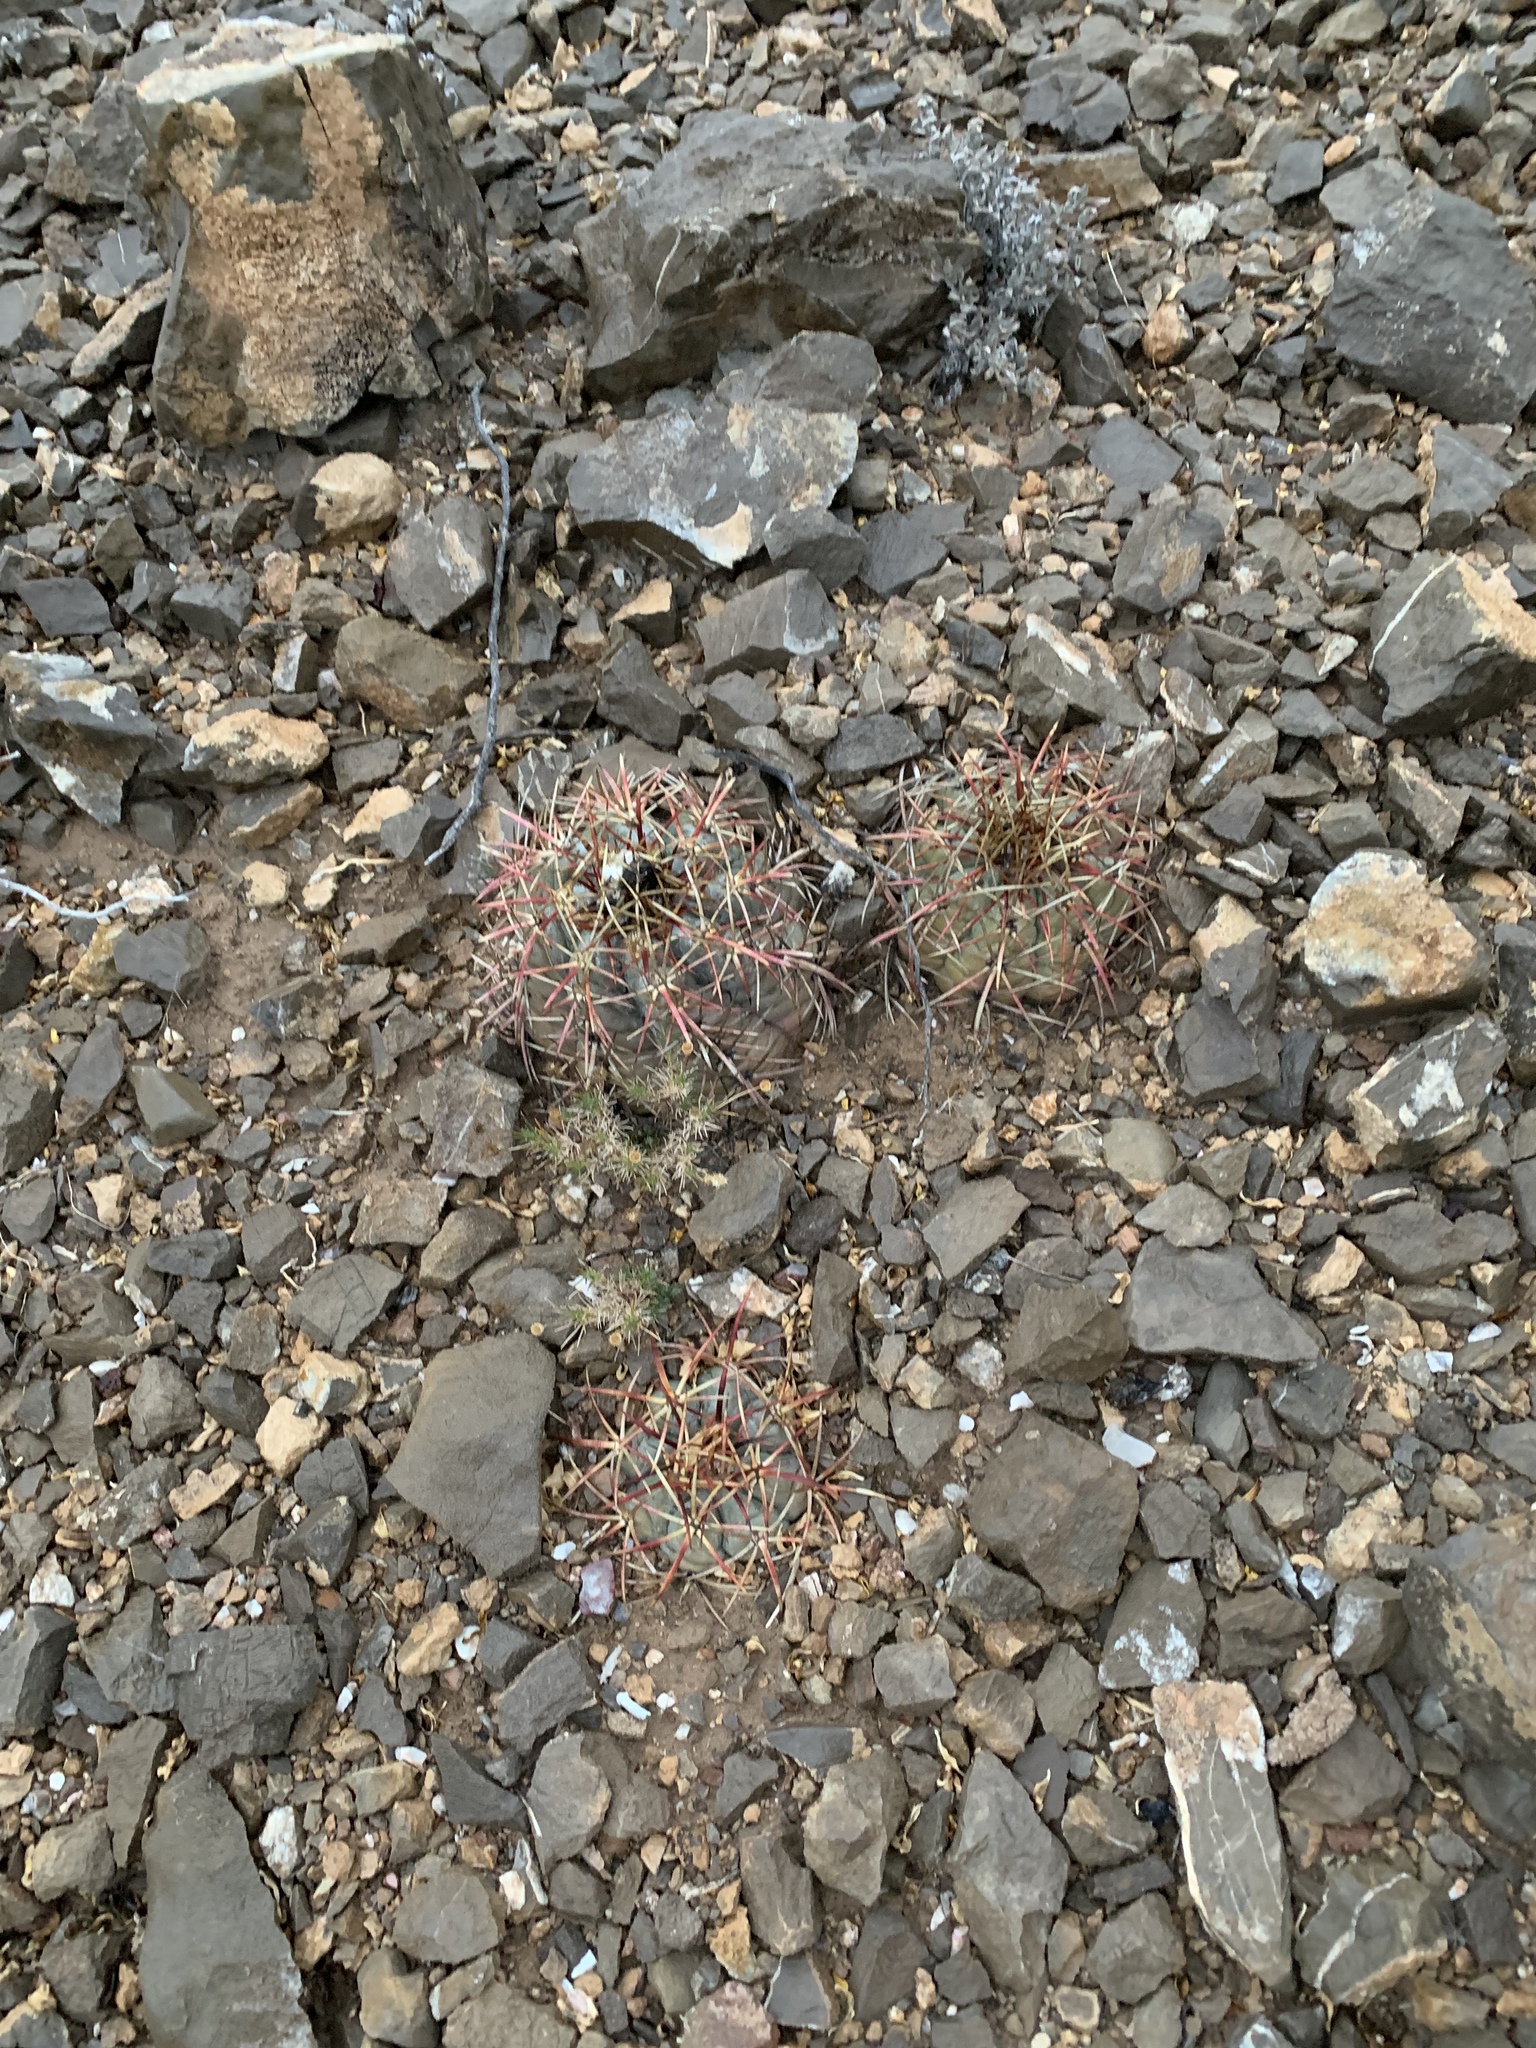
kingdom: Plantae
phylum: Tracheophyta
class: Magnoliopsida
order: Caryophyllales
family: Cactaceae
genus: Echinocactus
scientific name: Echinocactus horizonthalonius
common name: Devilshead
